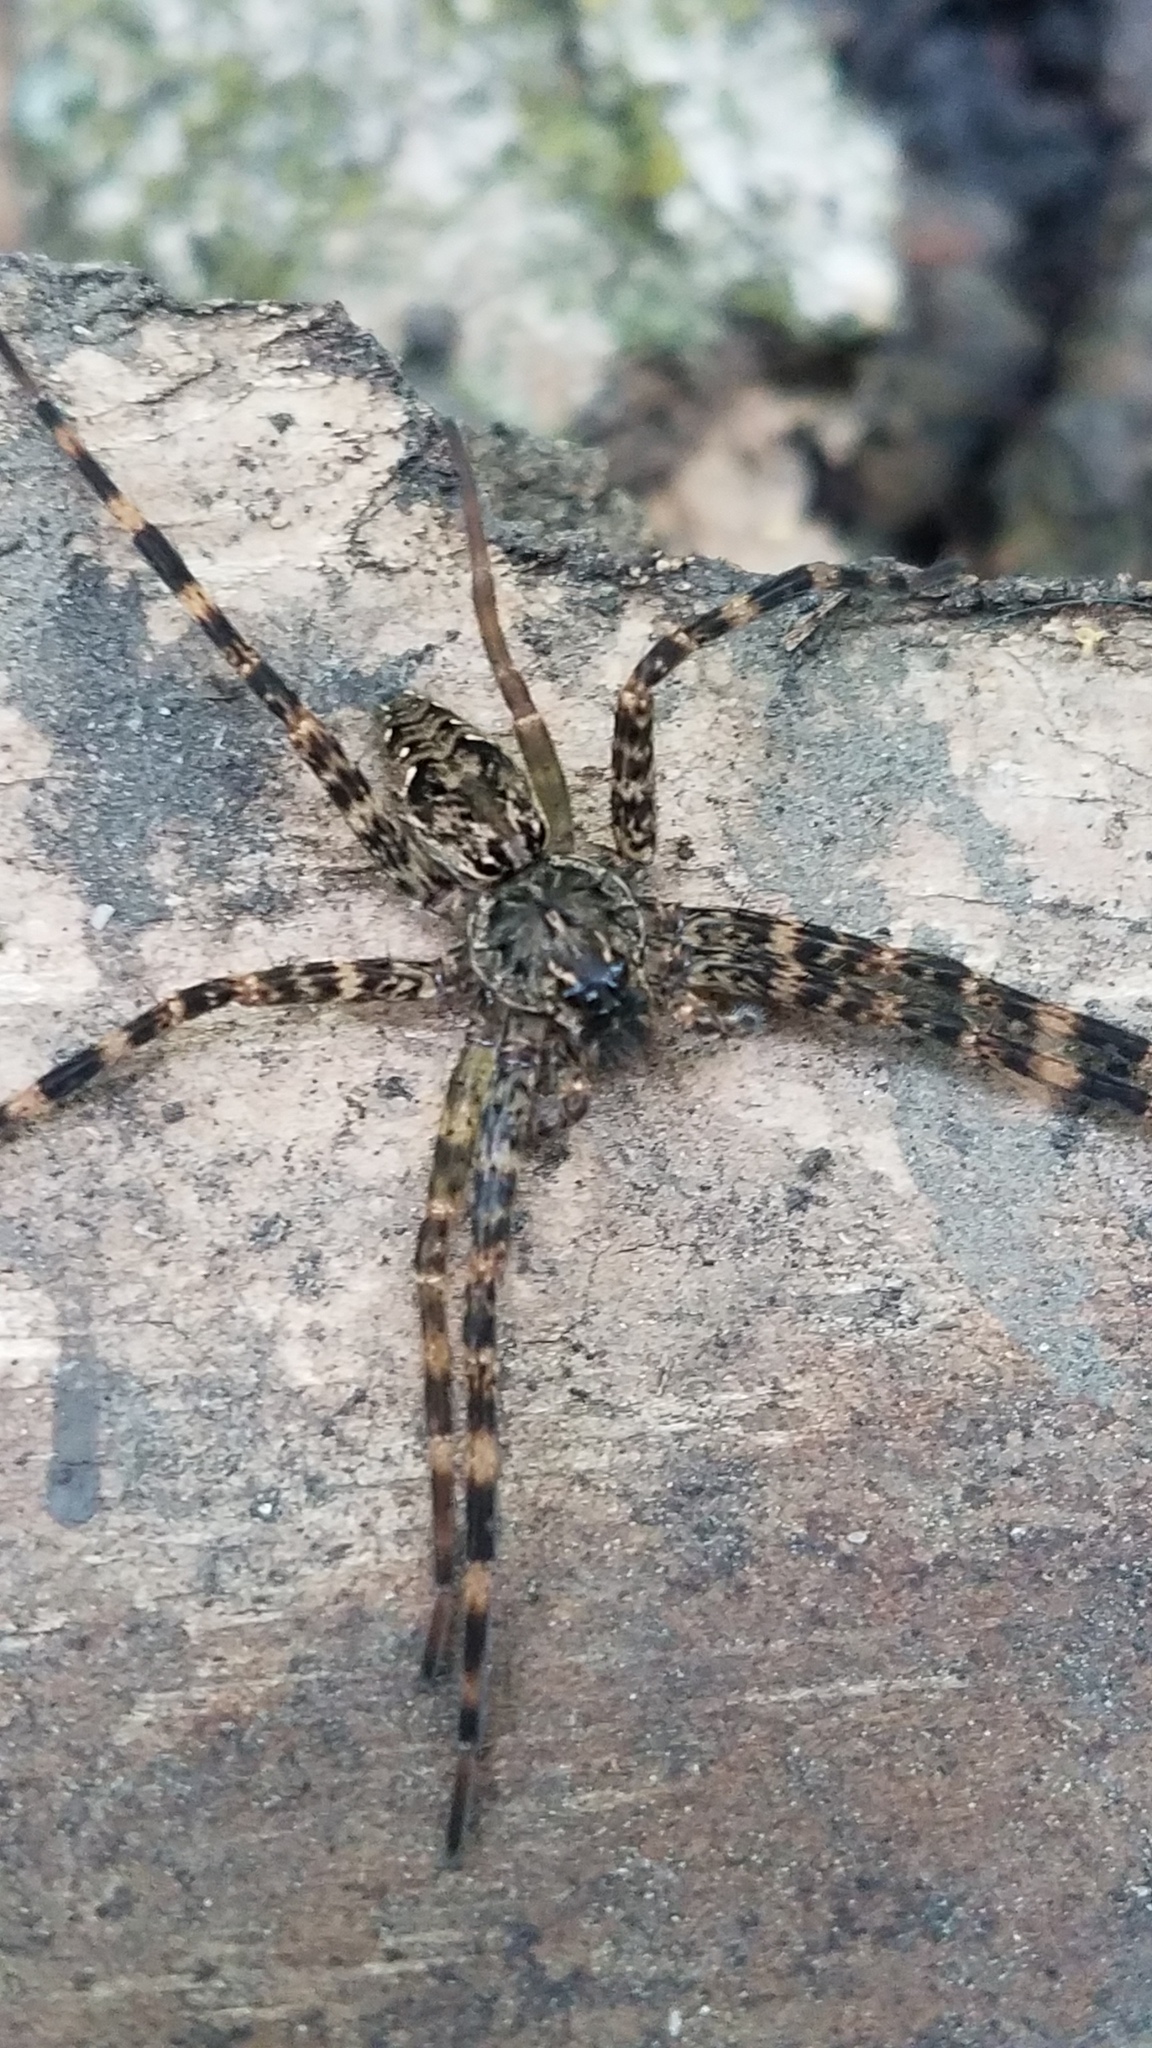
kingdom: Animalia
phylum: Arthropoda
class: Arachnida
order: Araneae
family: Pisauridae
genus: Dolomedes
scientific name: Dolomedes tenebrosus
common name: Dark fishing spider
